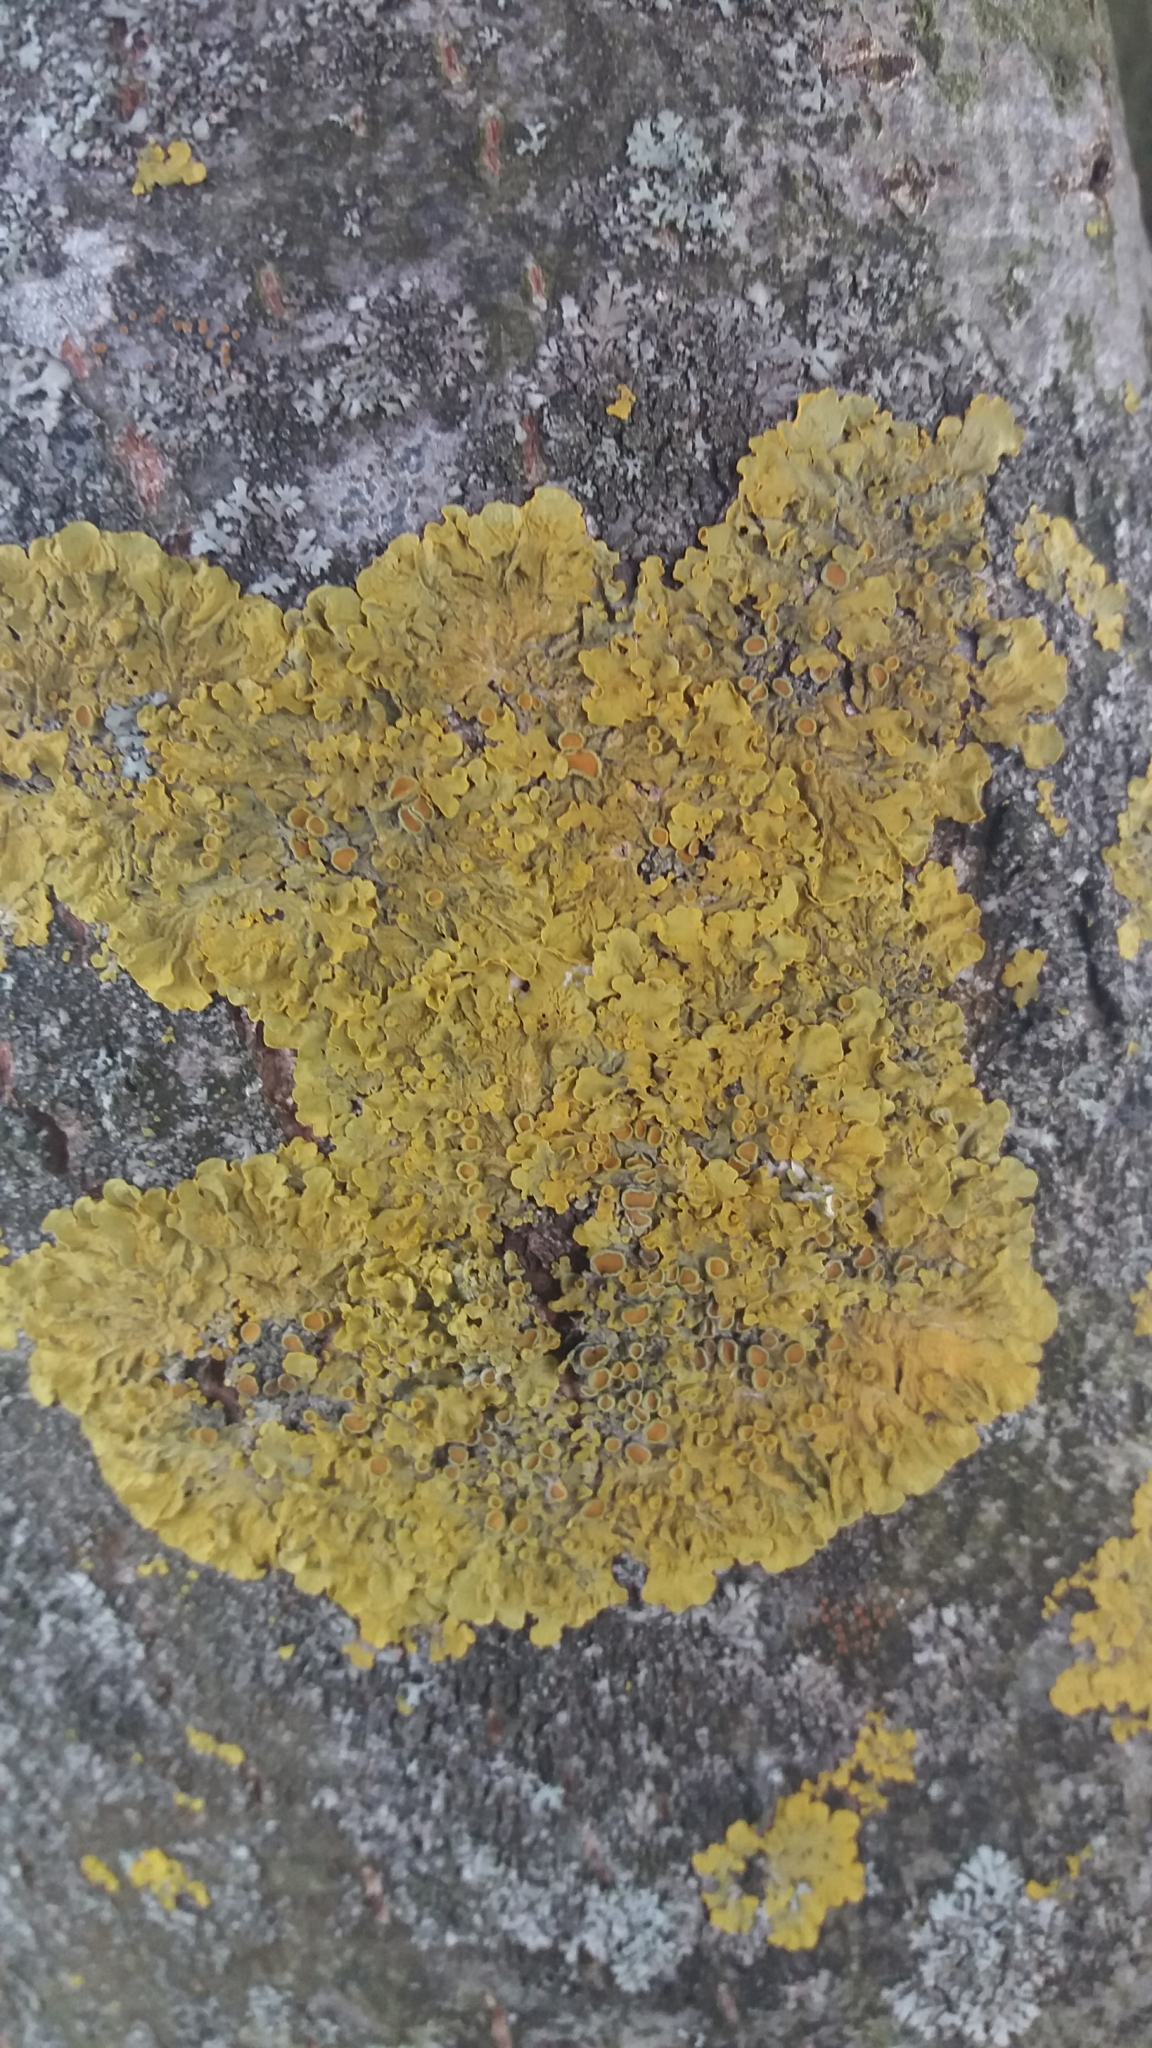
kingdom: Fungi
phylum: Ascomycota
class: Lecanoromycetes
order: Teloschistales
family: Teloschistaceae
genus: Xanthoria
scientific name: Xanthoria parietina
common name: Common orange lichen
